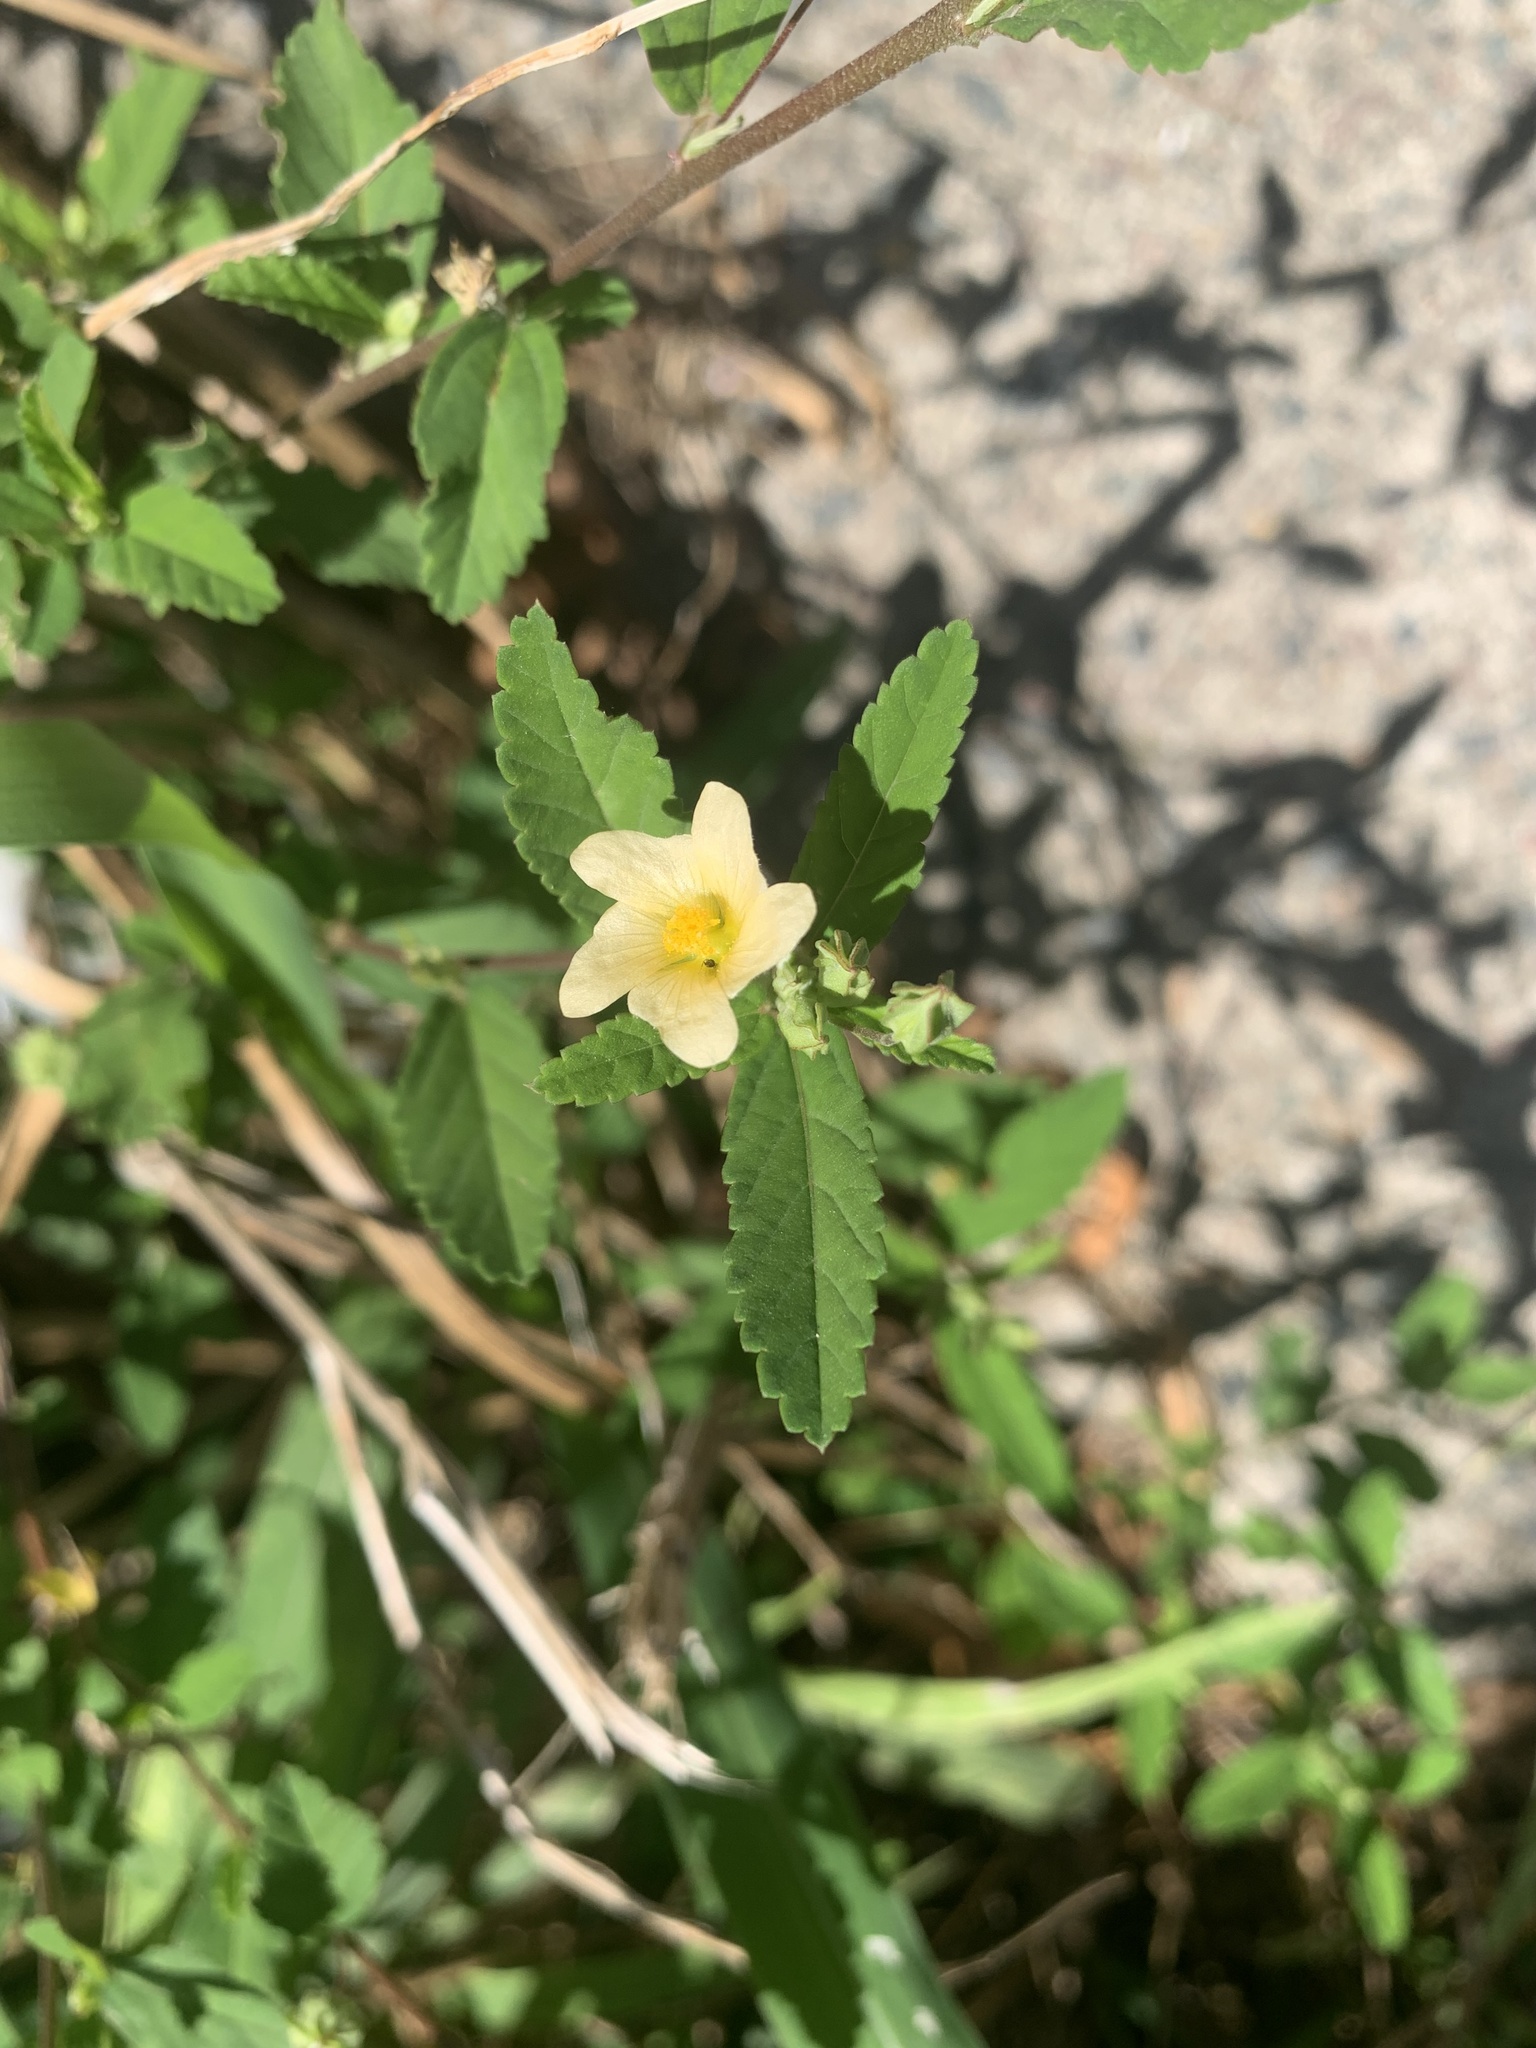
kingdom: Plantae
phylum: Tracheophyta
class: Magnoliopsida
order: Malvales
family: Malvaceae
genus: Sida
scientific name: Sida rhombifolia
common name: Queensland-hemp
